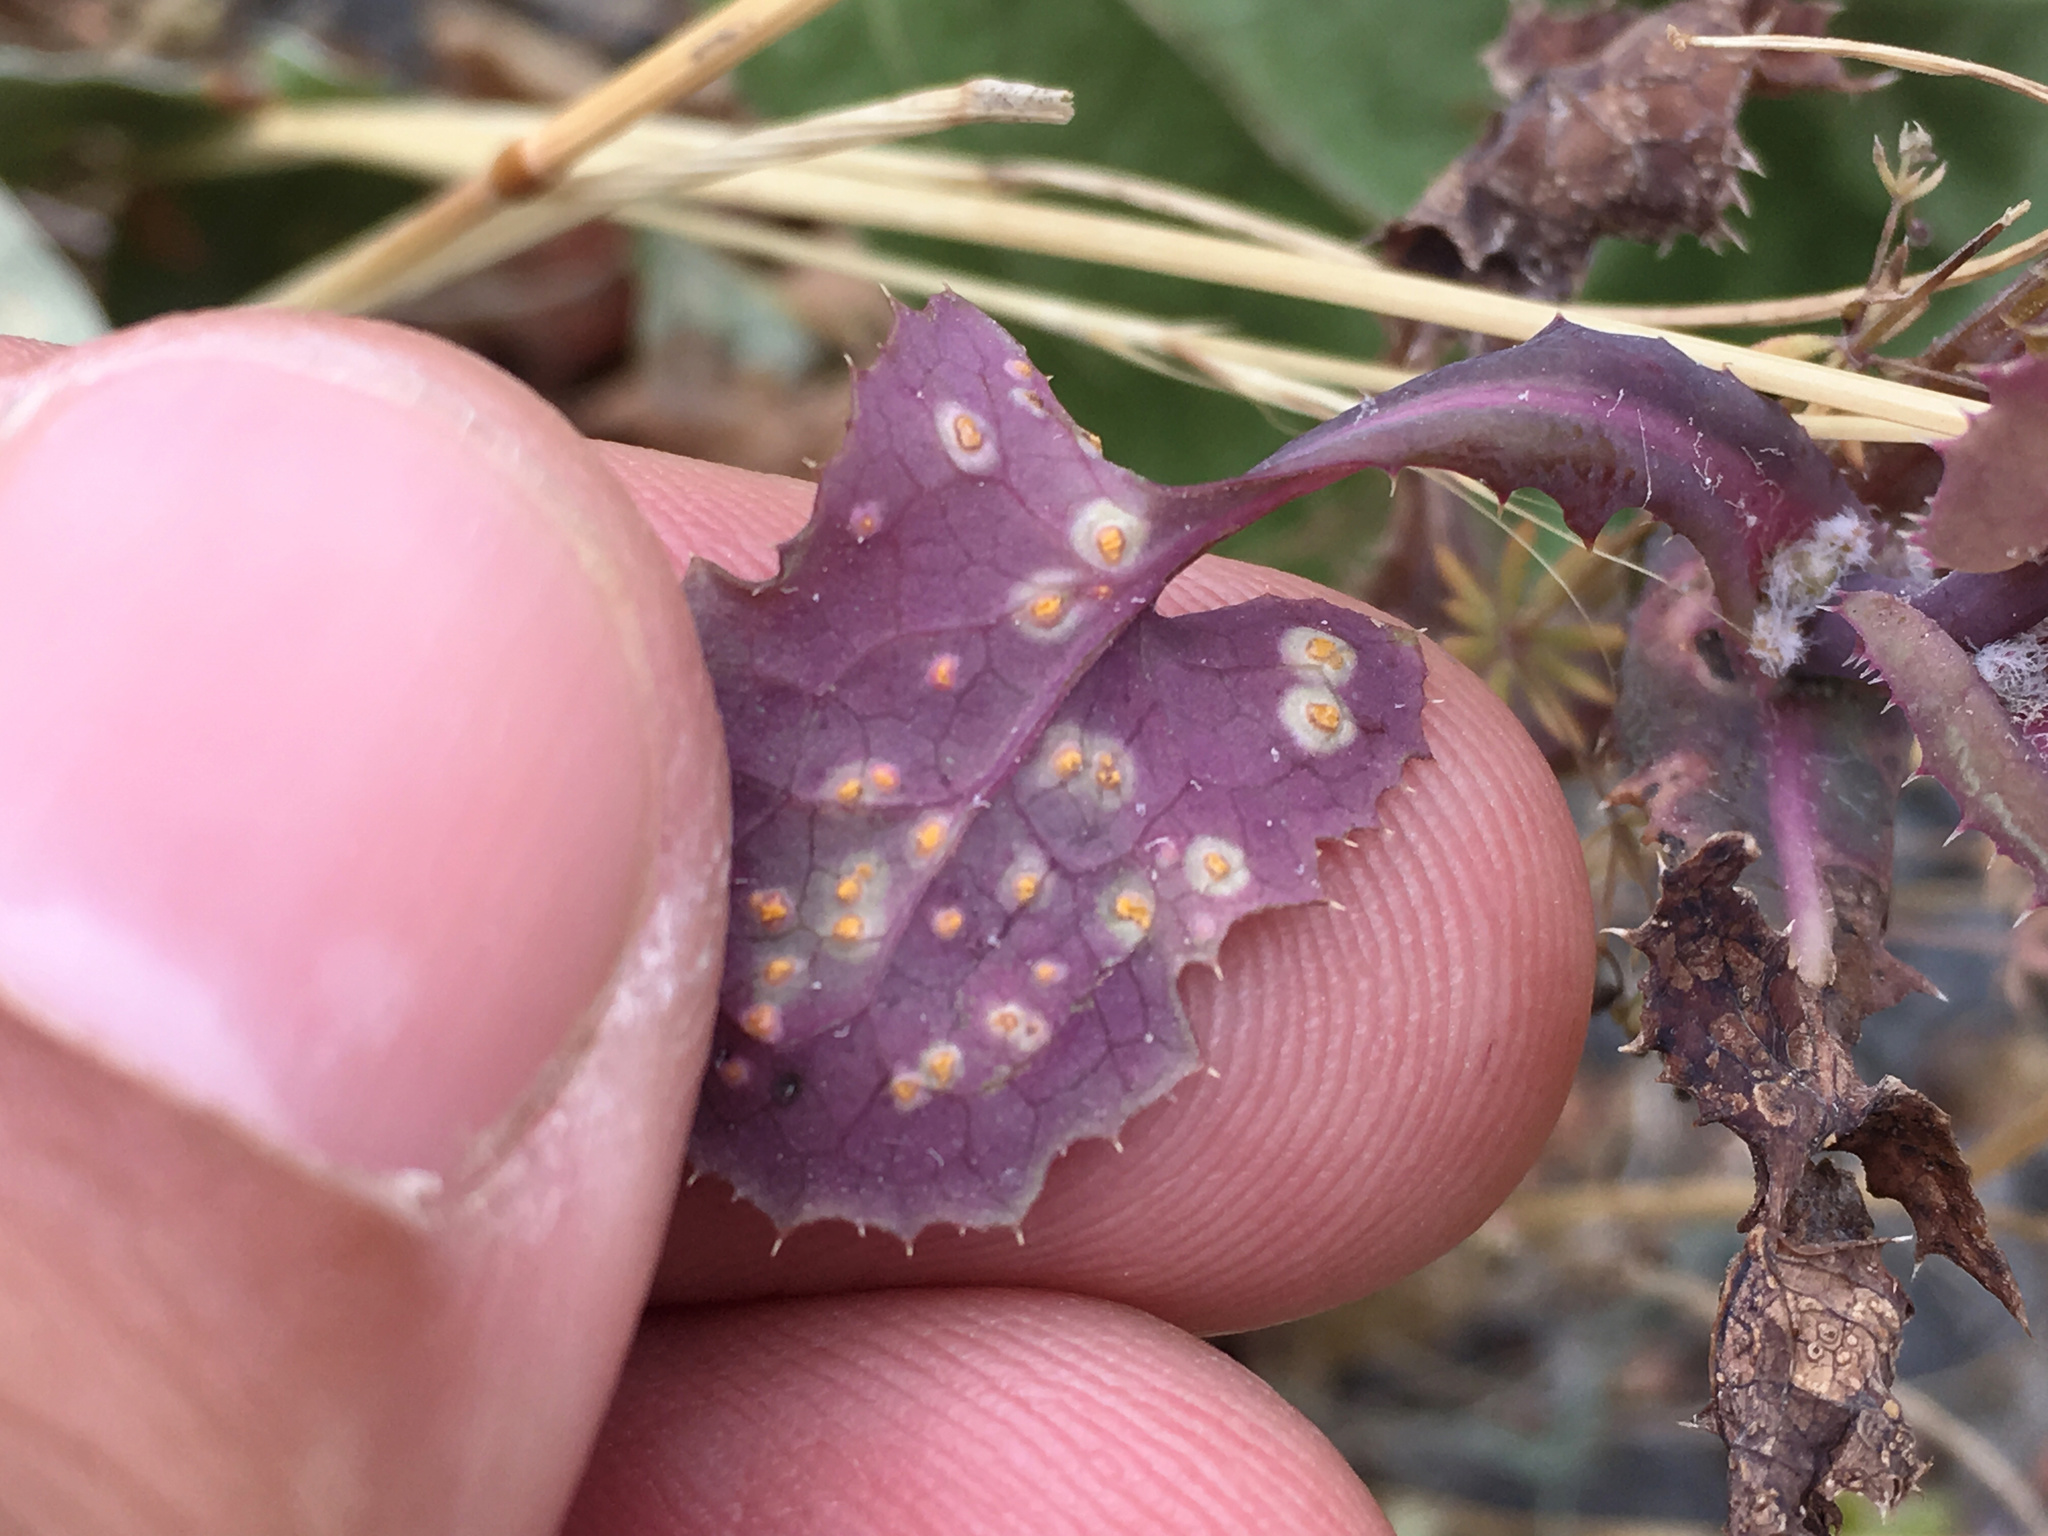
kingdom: Fungi
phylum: Basidiomycota
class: Pucciniomycetes
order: Pucciniales
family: Pucciniaceae
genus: Peristemma
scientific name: Peristemma pseudosphaeria
